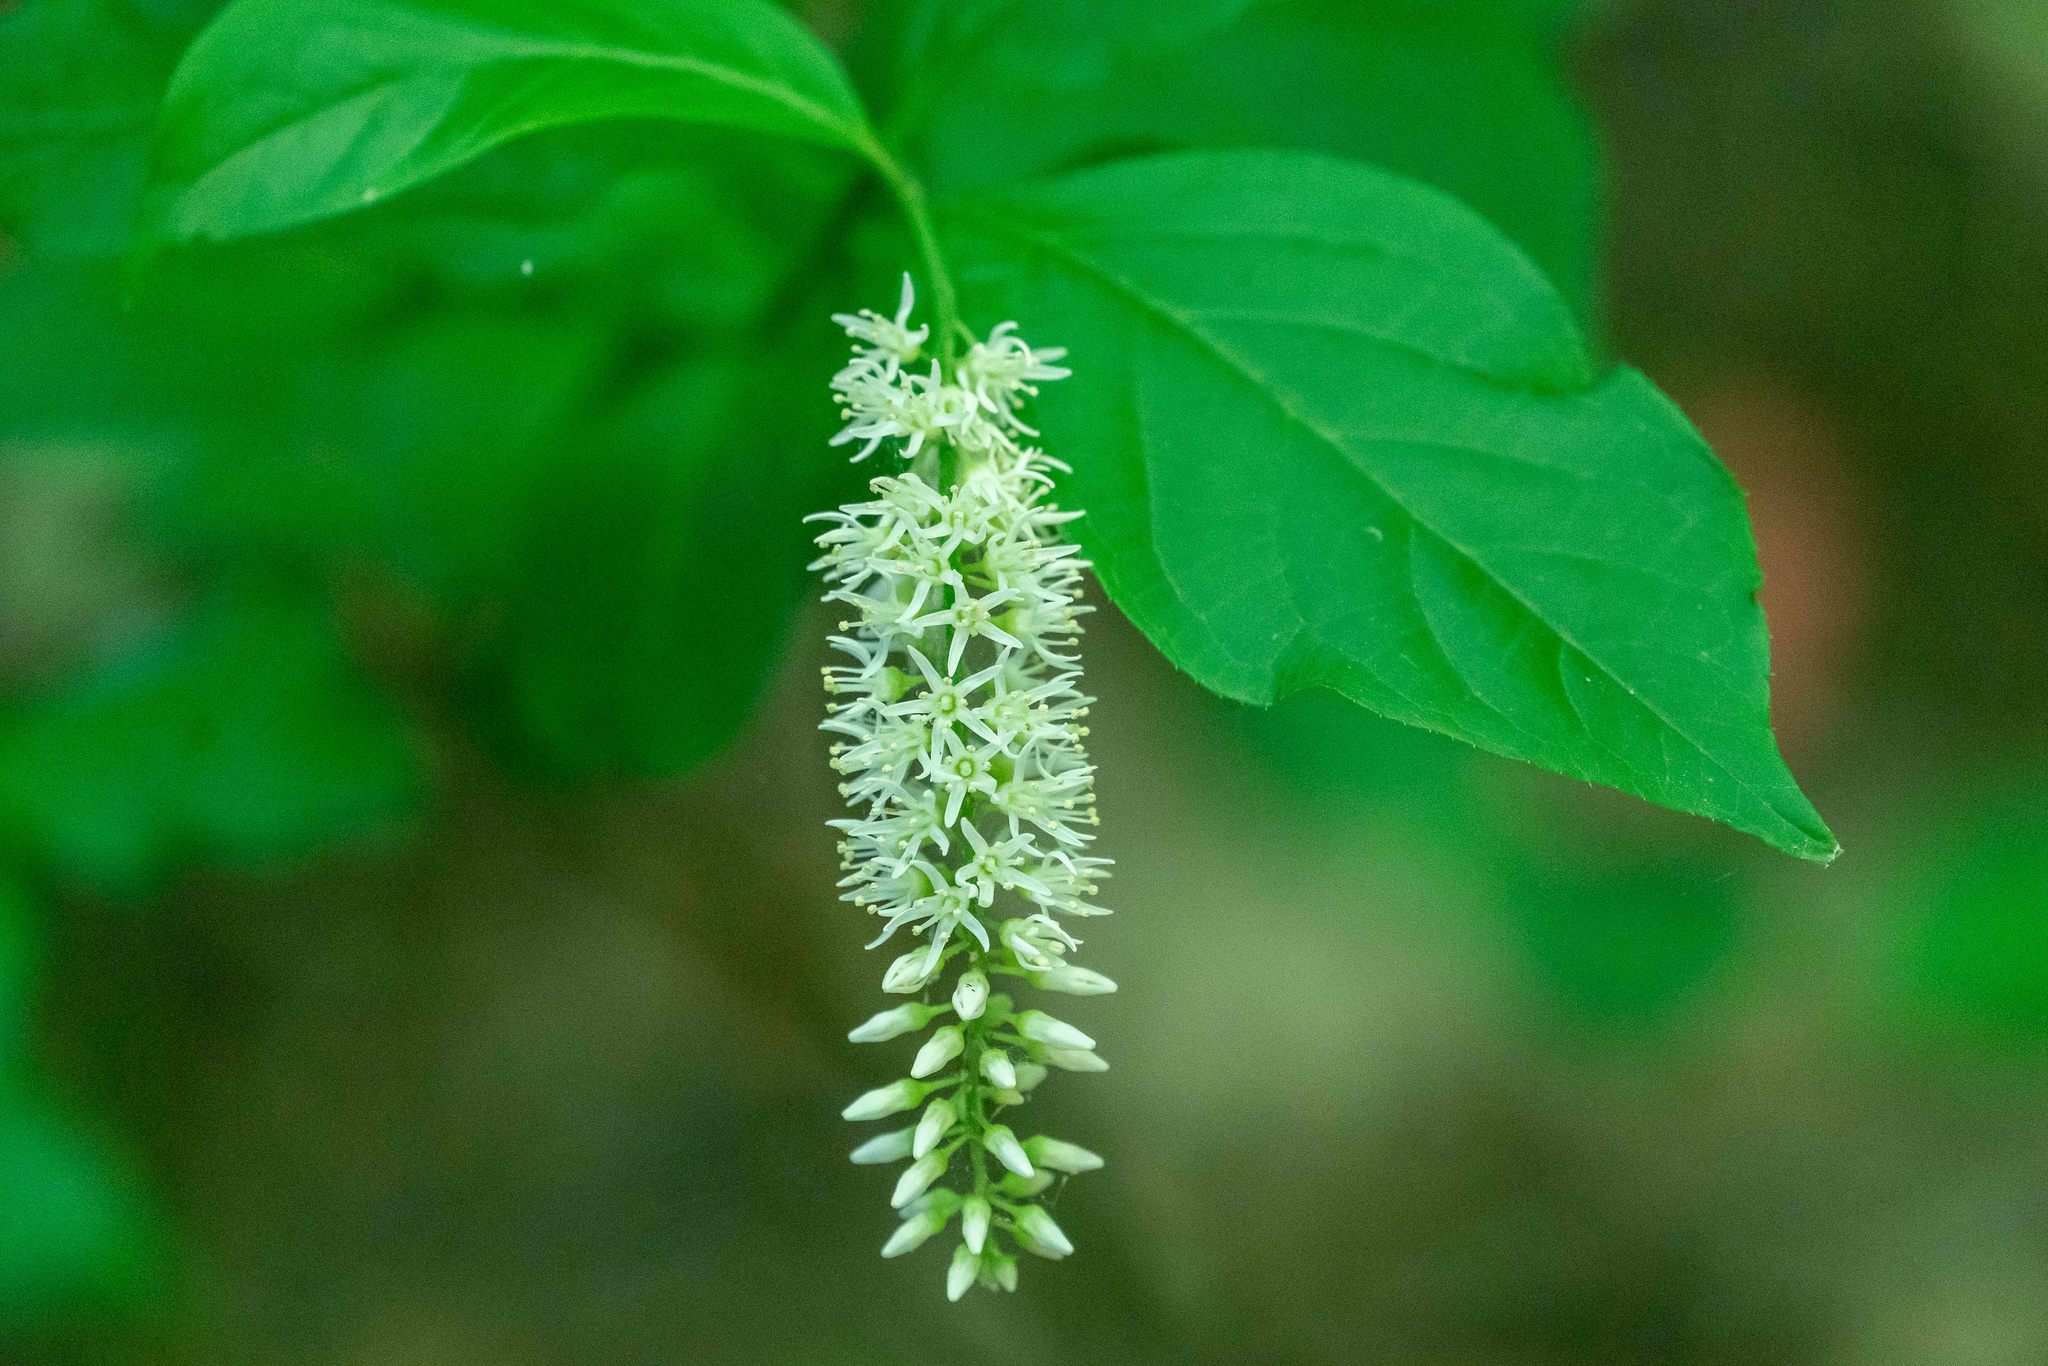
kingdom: Plantae
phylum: Tracheophyta
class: Magnoliopsida
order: Saxifragales
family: Iteaceae
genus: Itea
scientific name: Itea virginica
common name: Sweetspire
